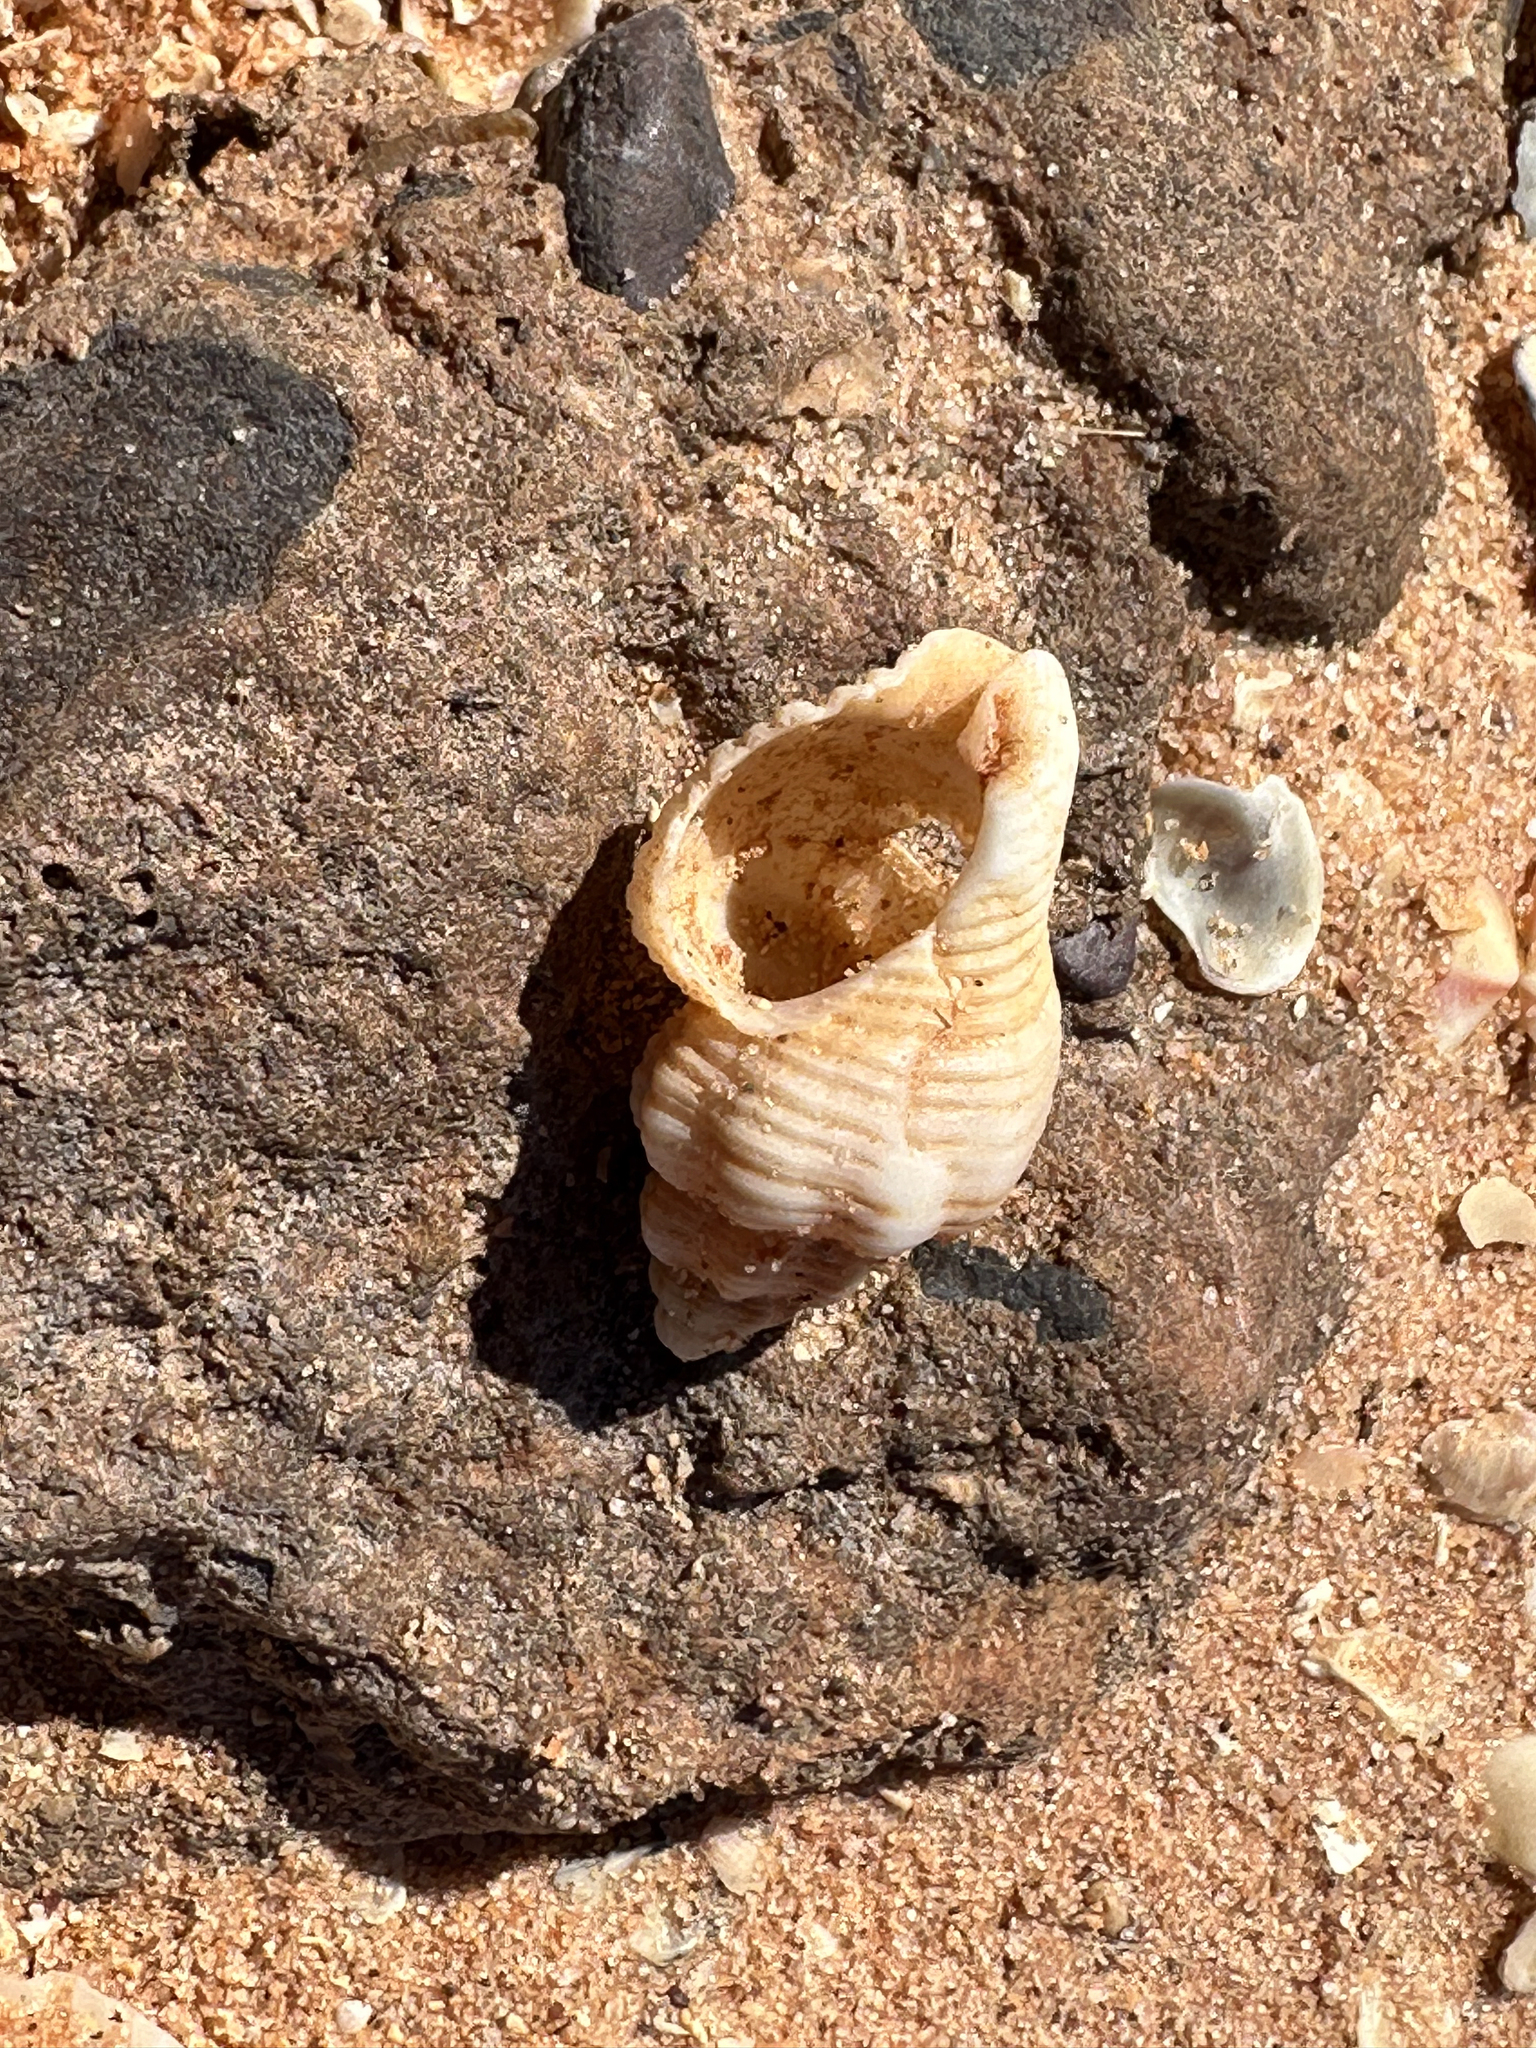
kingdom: Animalia
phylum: Mollusca
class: Gastropoda
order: Neogastropoda
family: Pisaniidae
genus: Cantharus
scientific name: Cantharus erythrostoma
